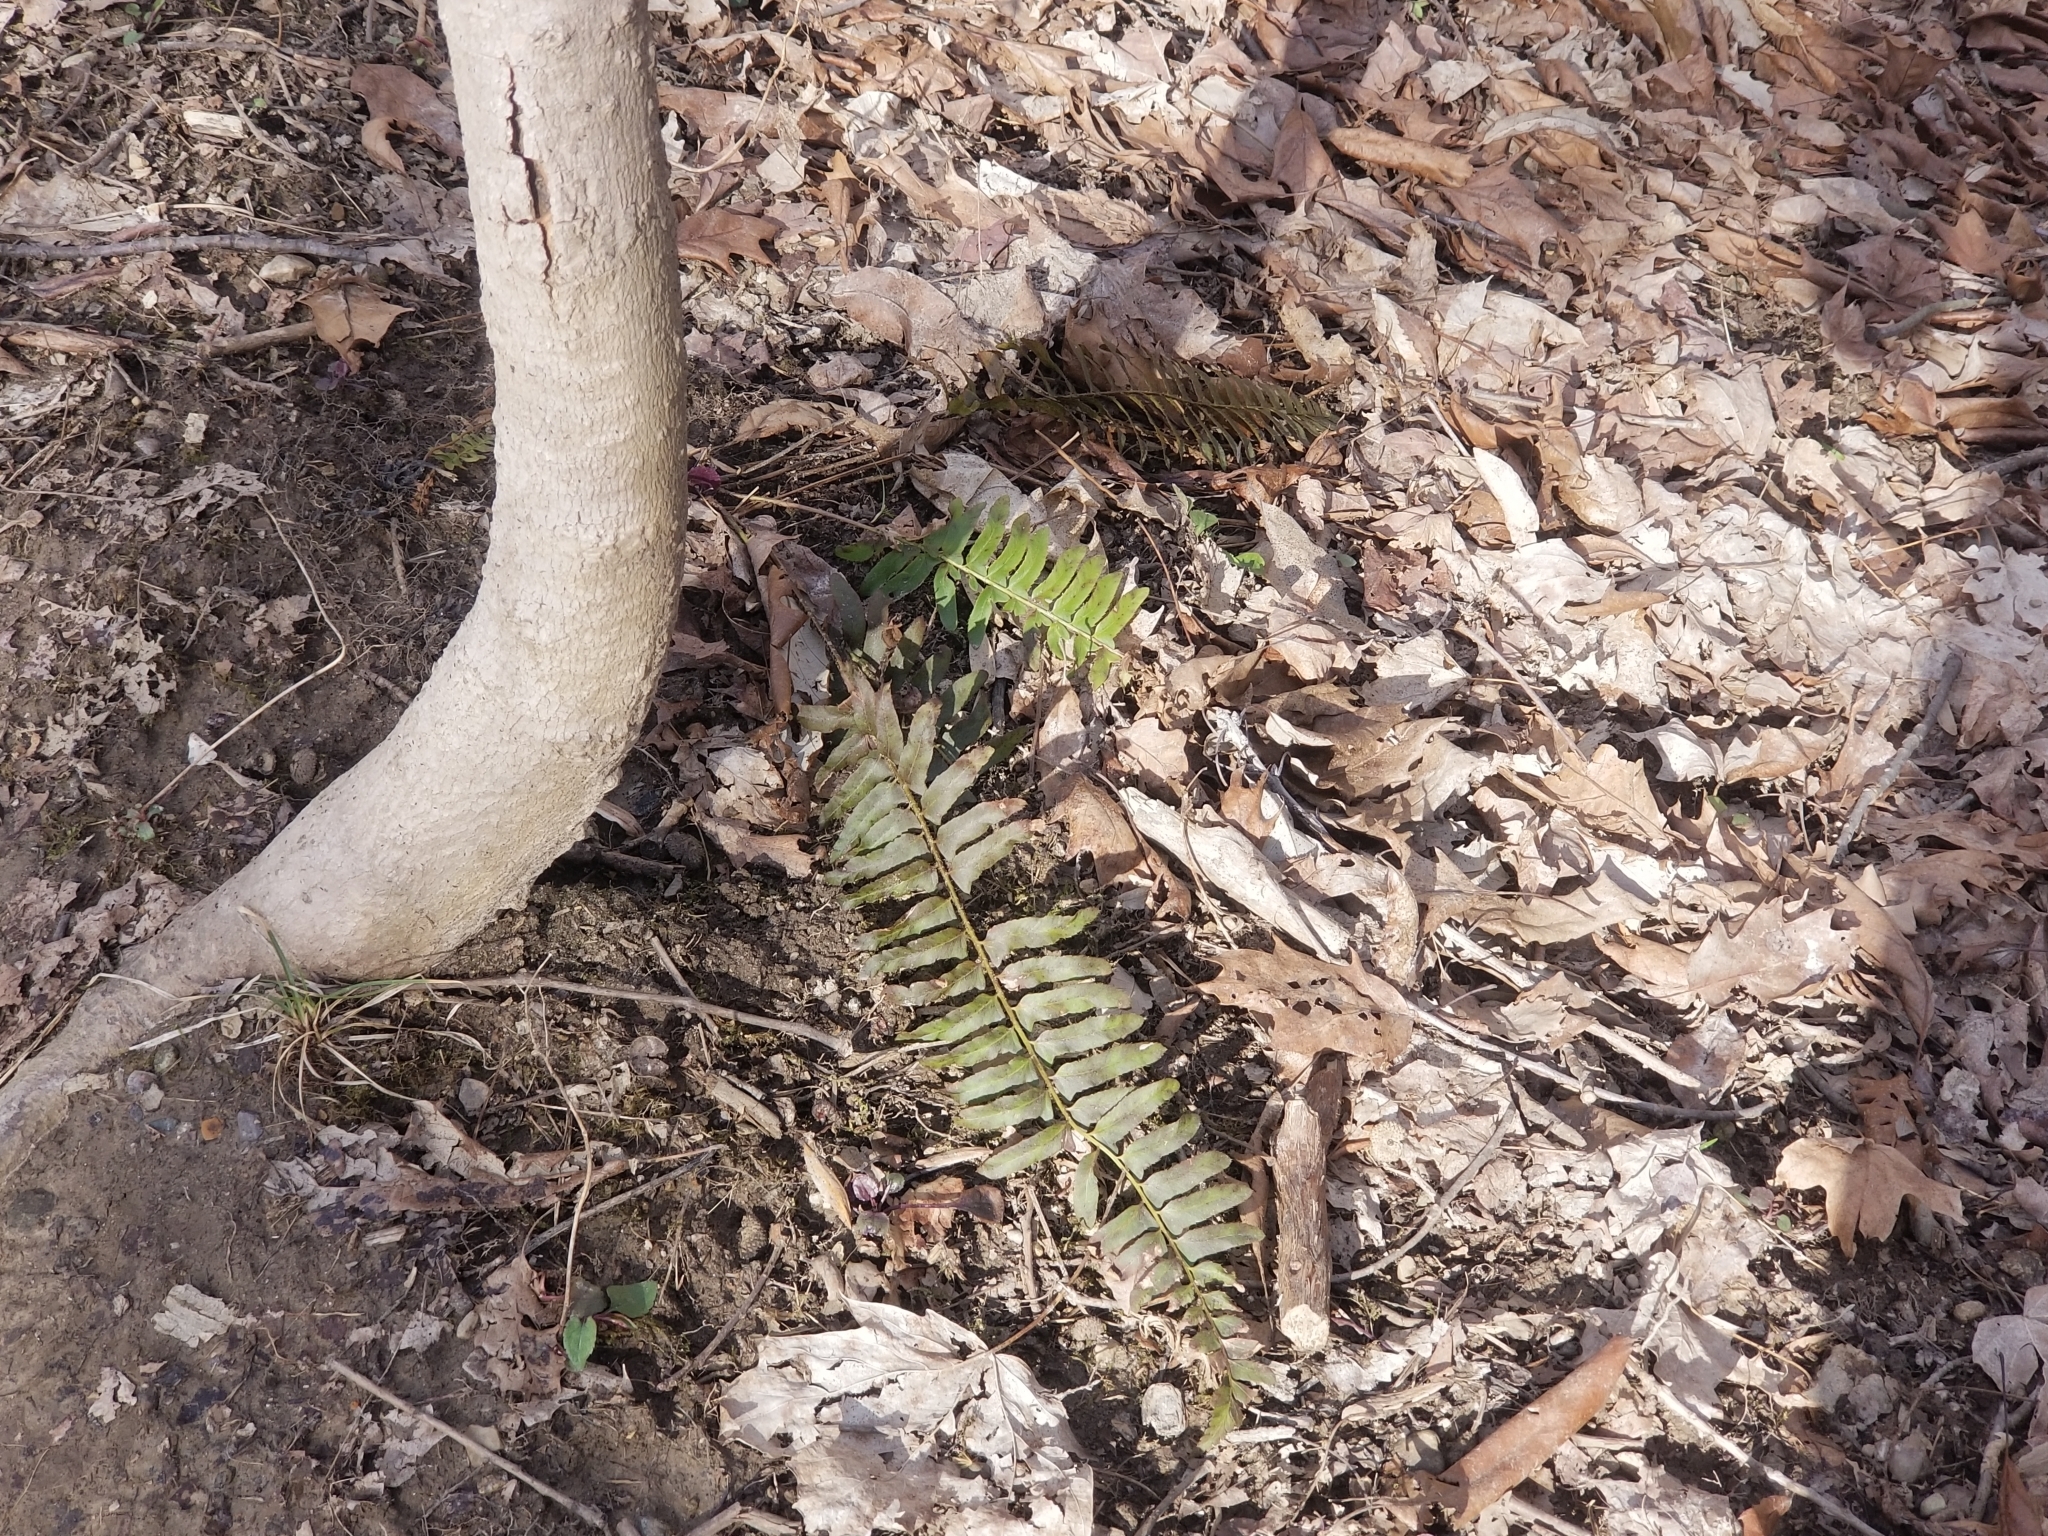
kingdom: Plantae
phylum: Tracheophyta
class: Polypodiopsida
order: Polypodiales
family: Dryopteridaceae
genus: Polystichum
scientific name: Polystichum acrostichoides
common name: Christmas fern
